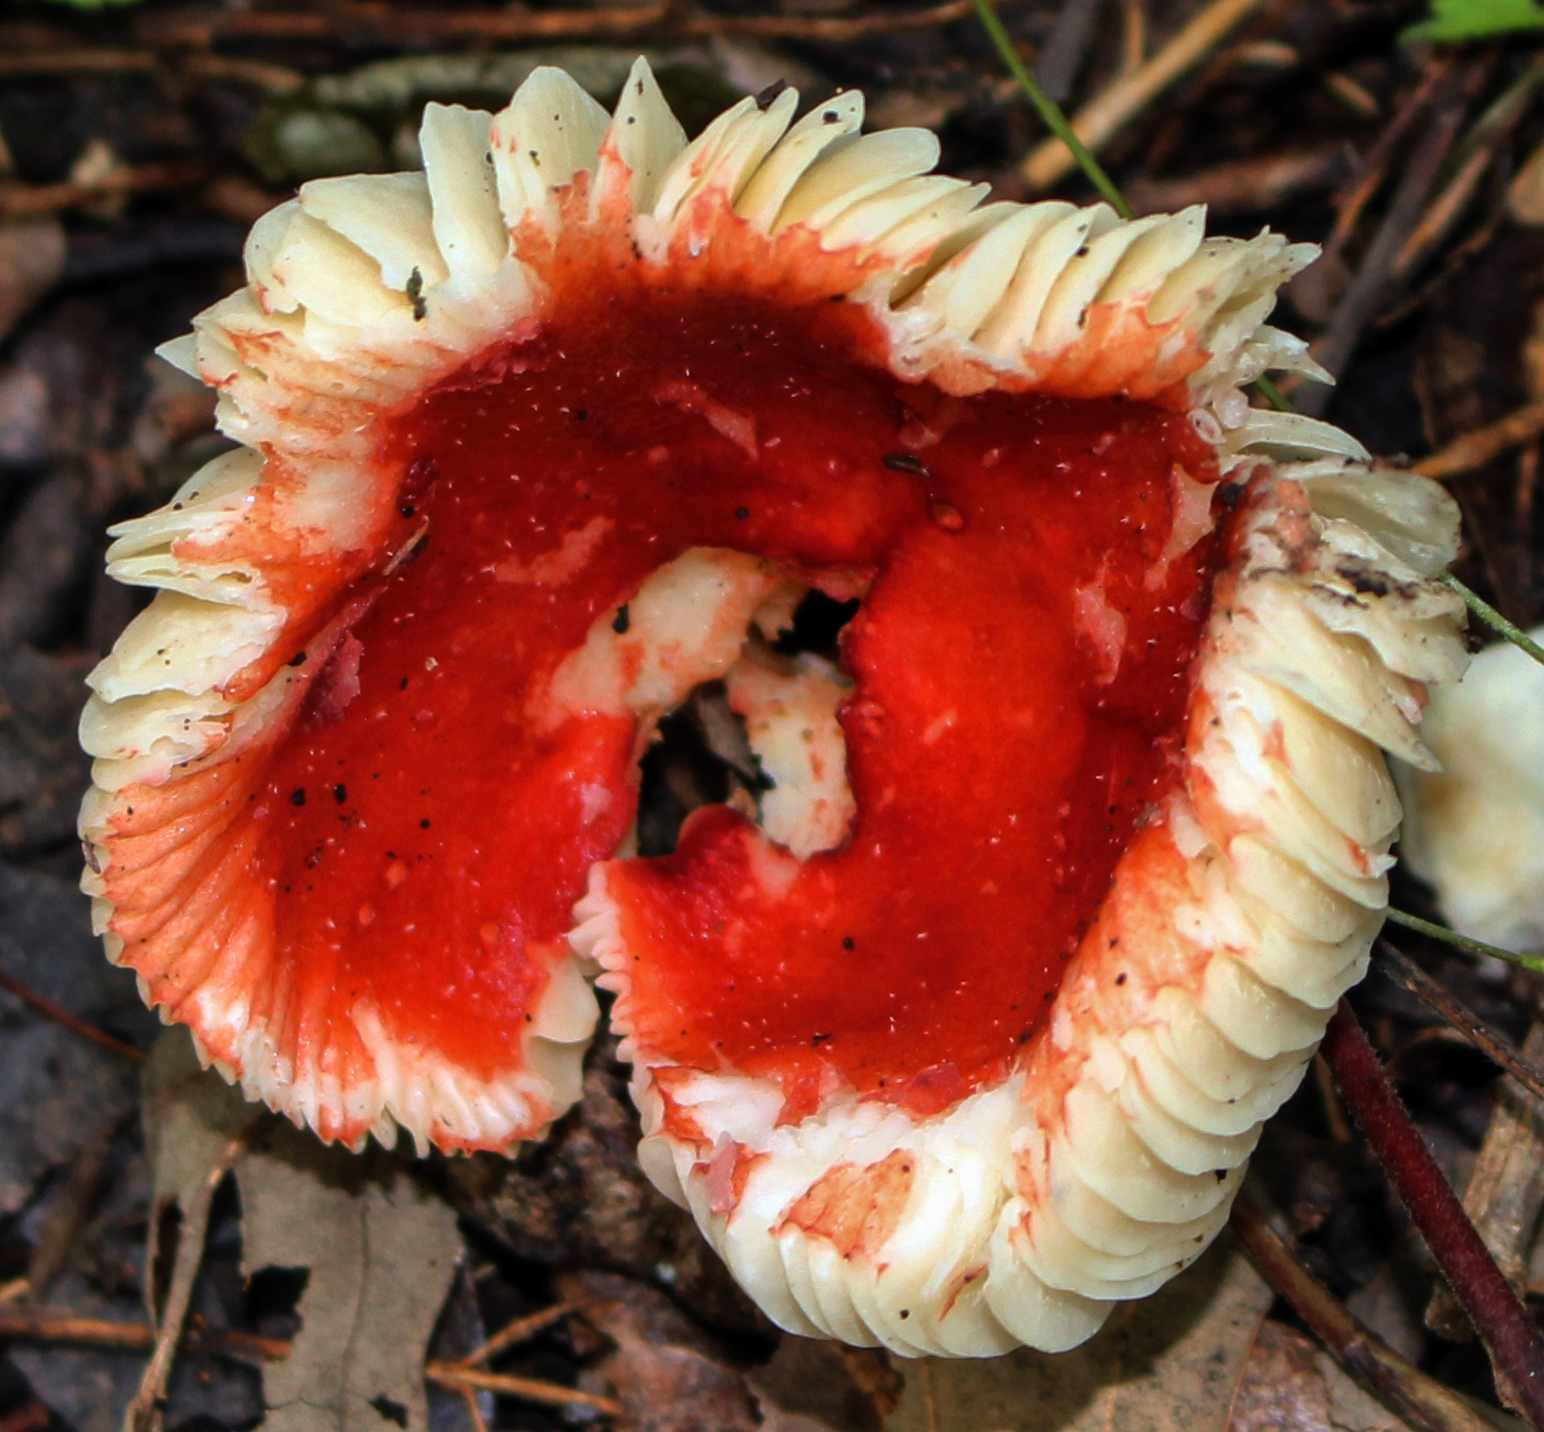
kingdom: Fungi
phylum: Basidiomycota
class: Agaricomycetes
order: Russulales
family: Russulaceae
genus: Russula
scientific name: Russula
